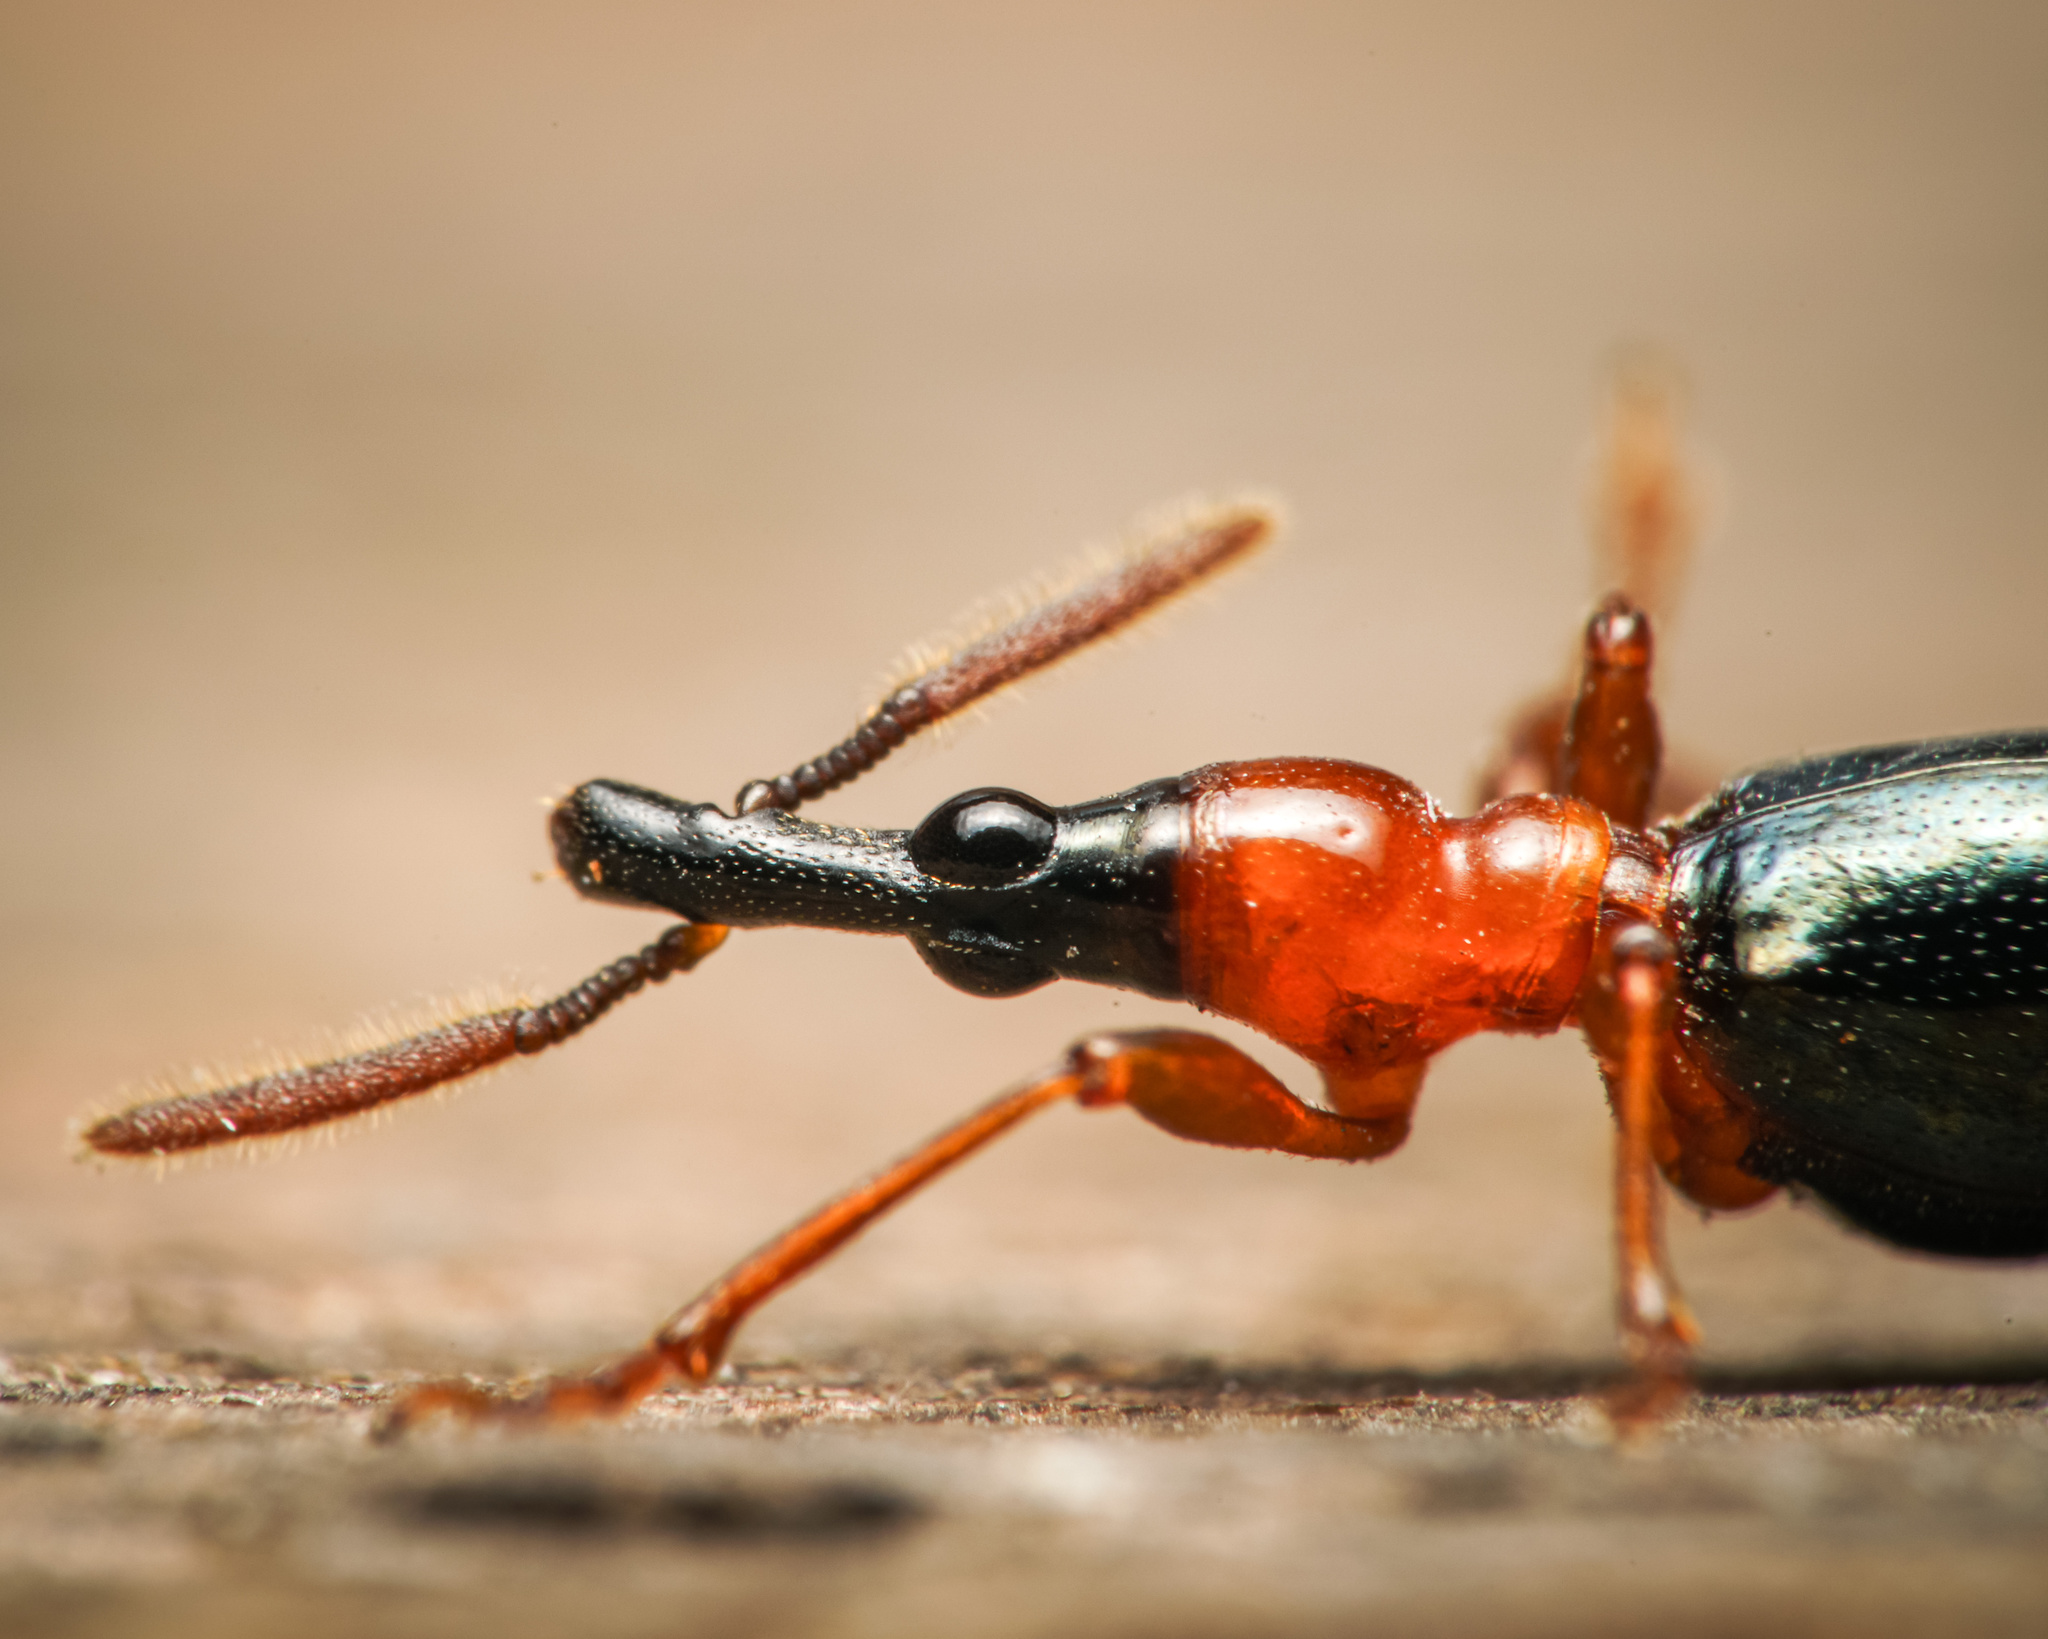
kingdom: Animalia
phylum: Arthropoda
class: Insecta
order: Coleoptera
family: Brentidae
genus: Cylas
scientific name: Cylas formicarius
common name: Sweetpotato weevil
